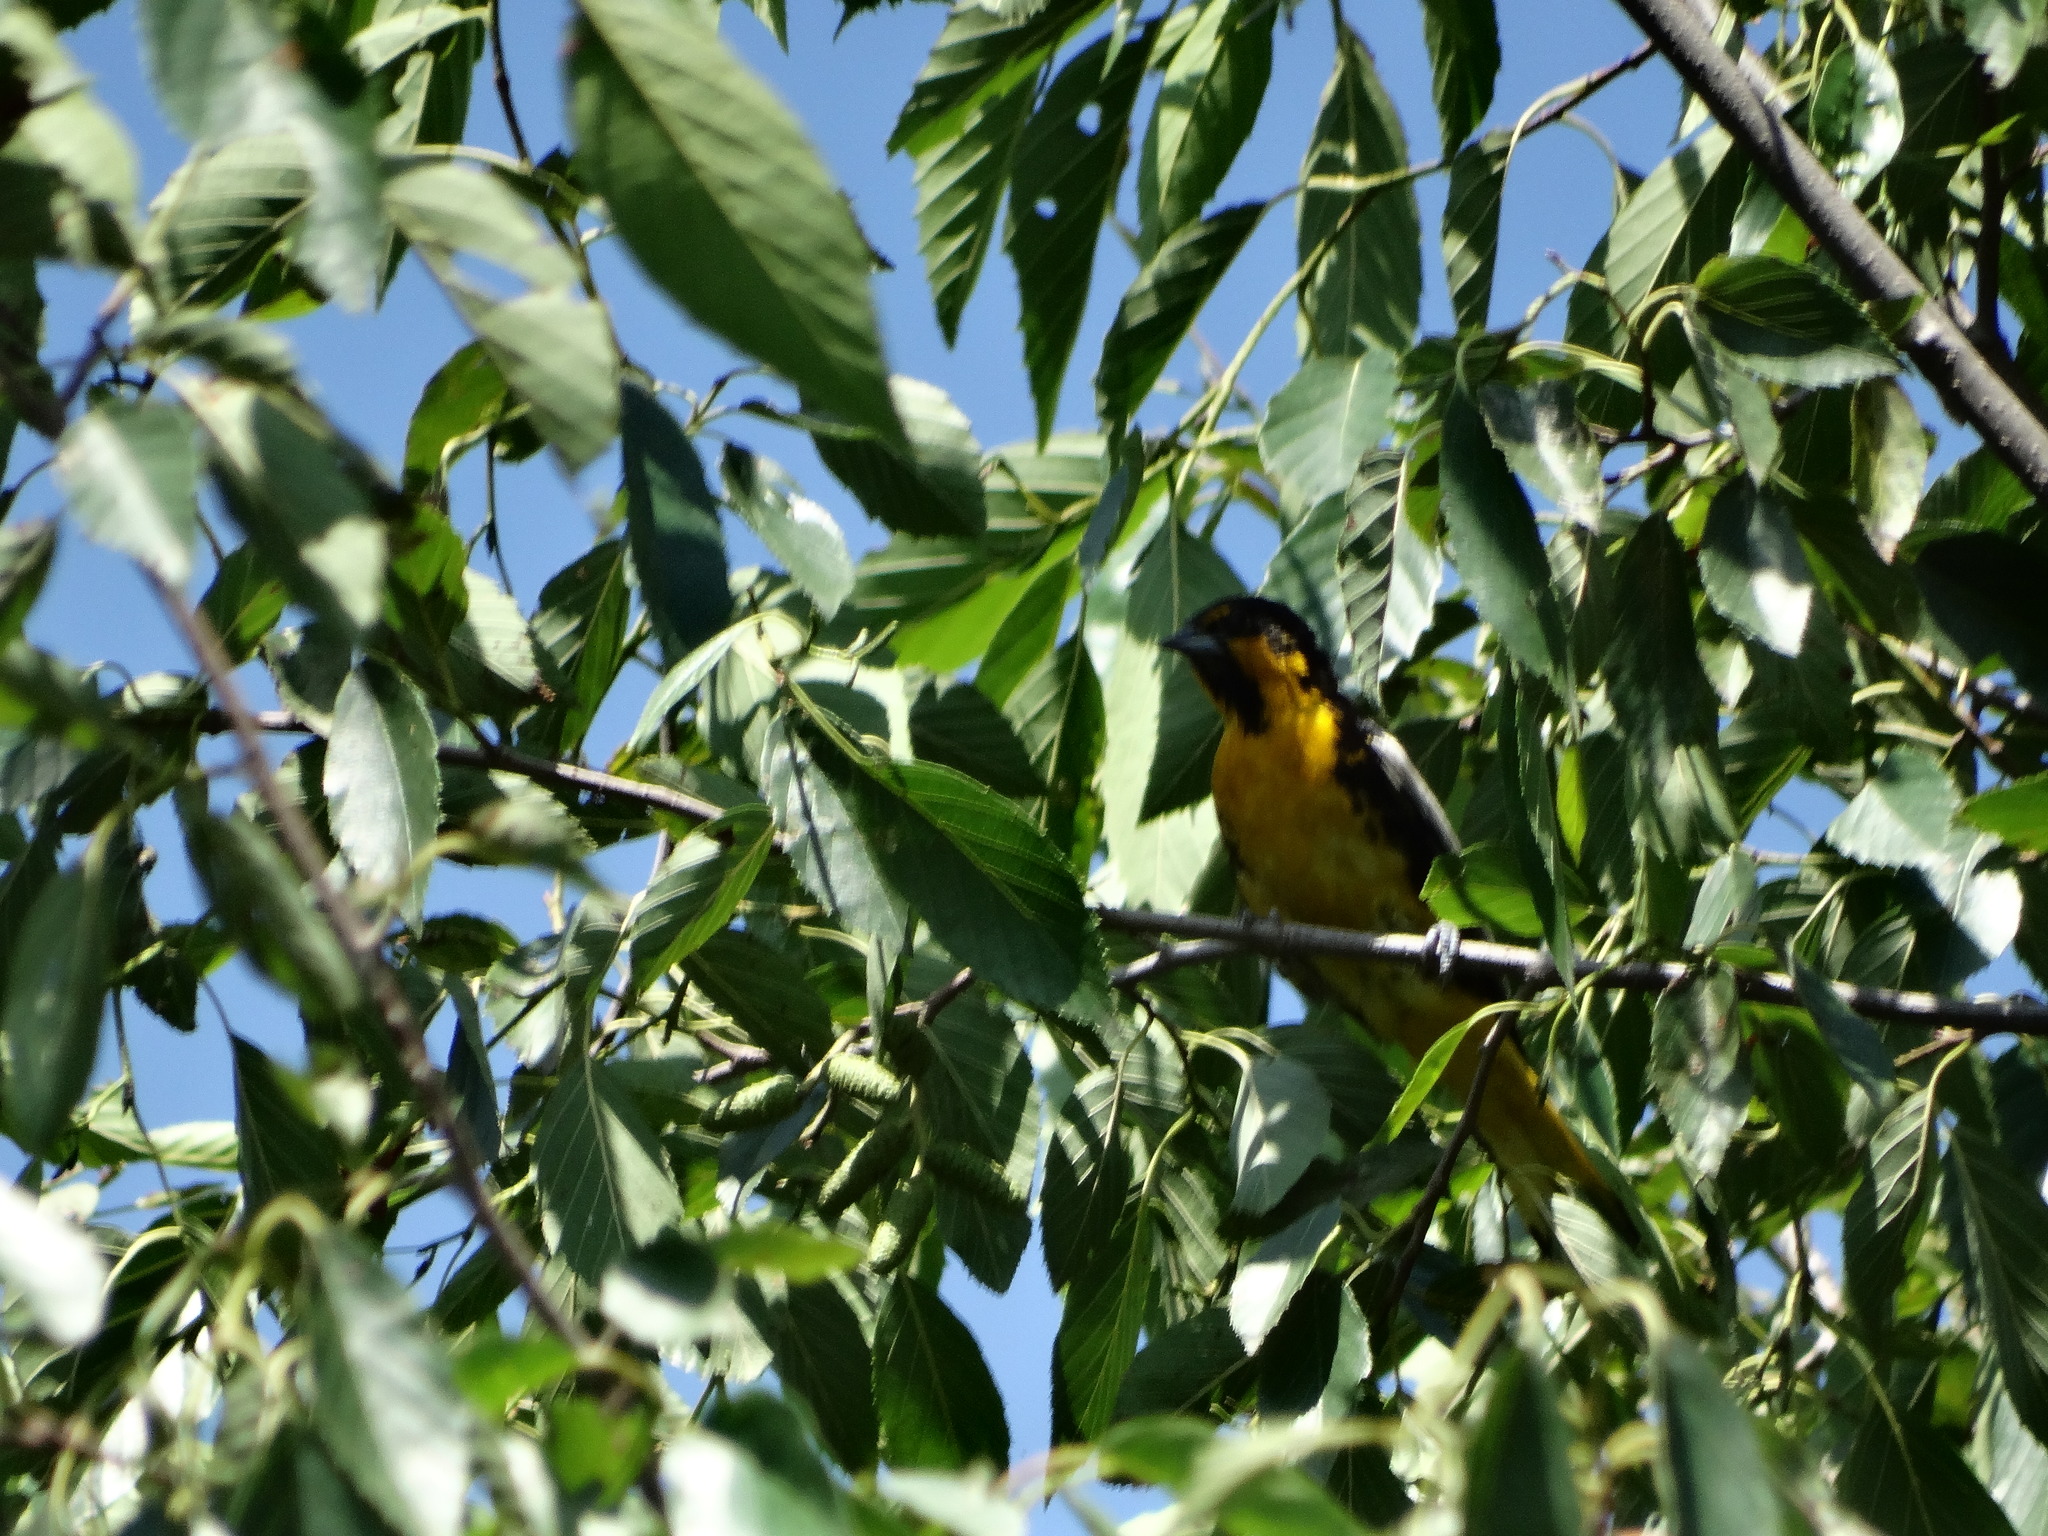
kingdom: Animalia
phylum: Chordata
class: Aves
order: Passeriformes
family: Icteridae
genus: Icterus
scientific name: Icterus abeillei
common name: Black-backed oriole
